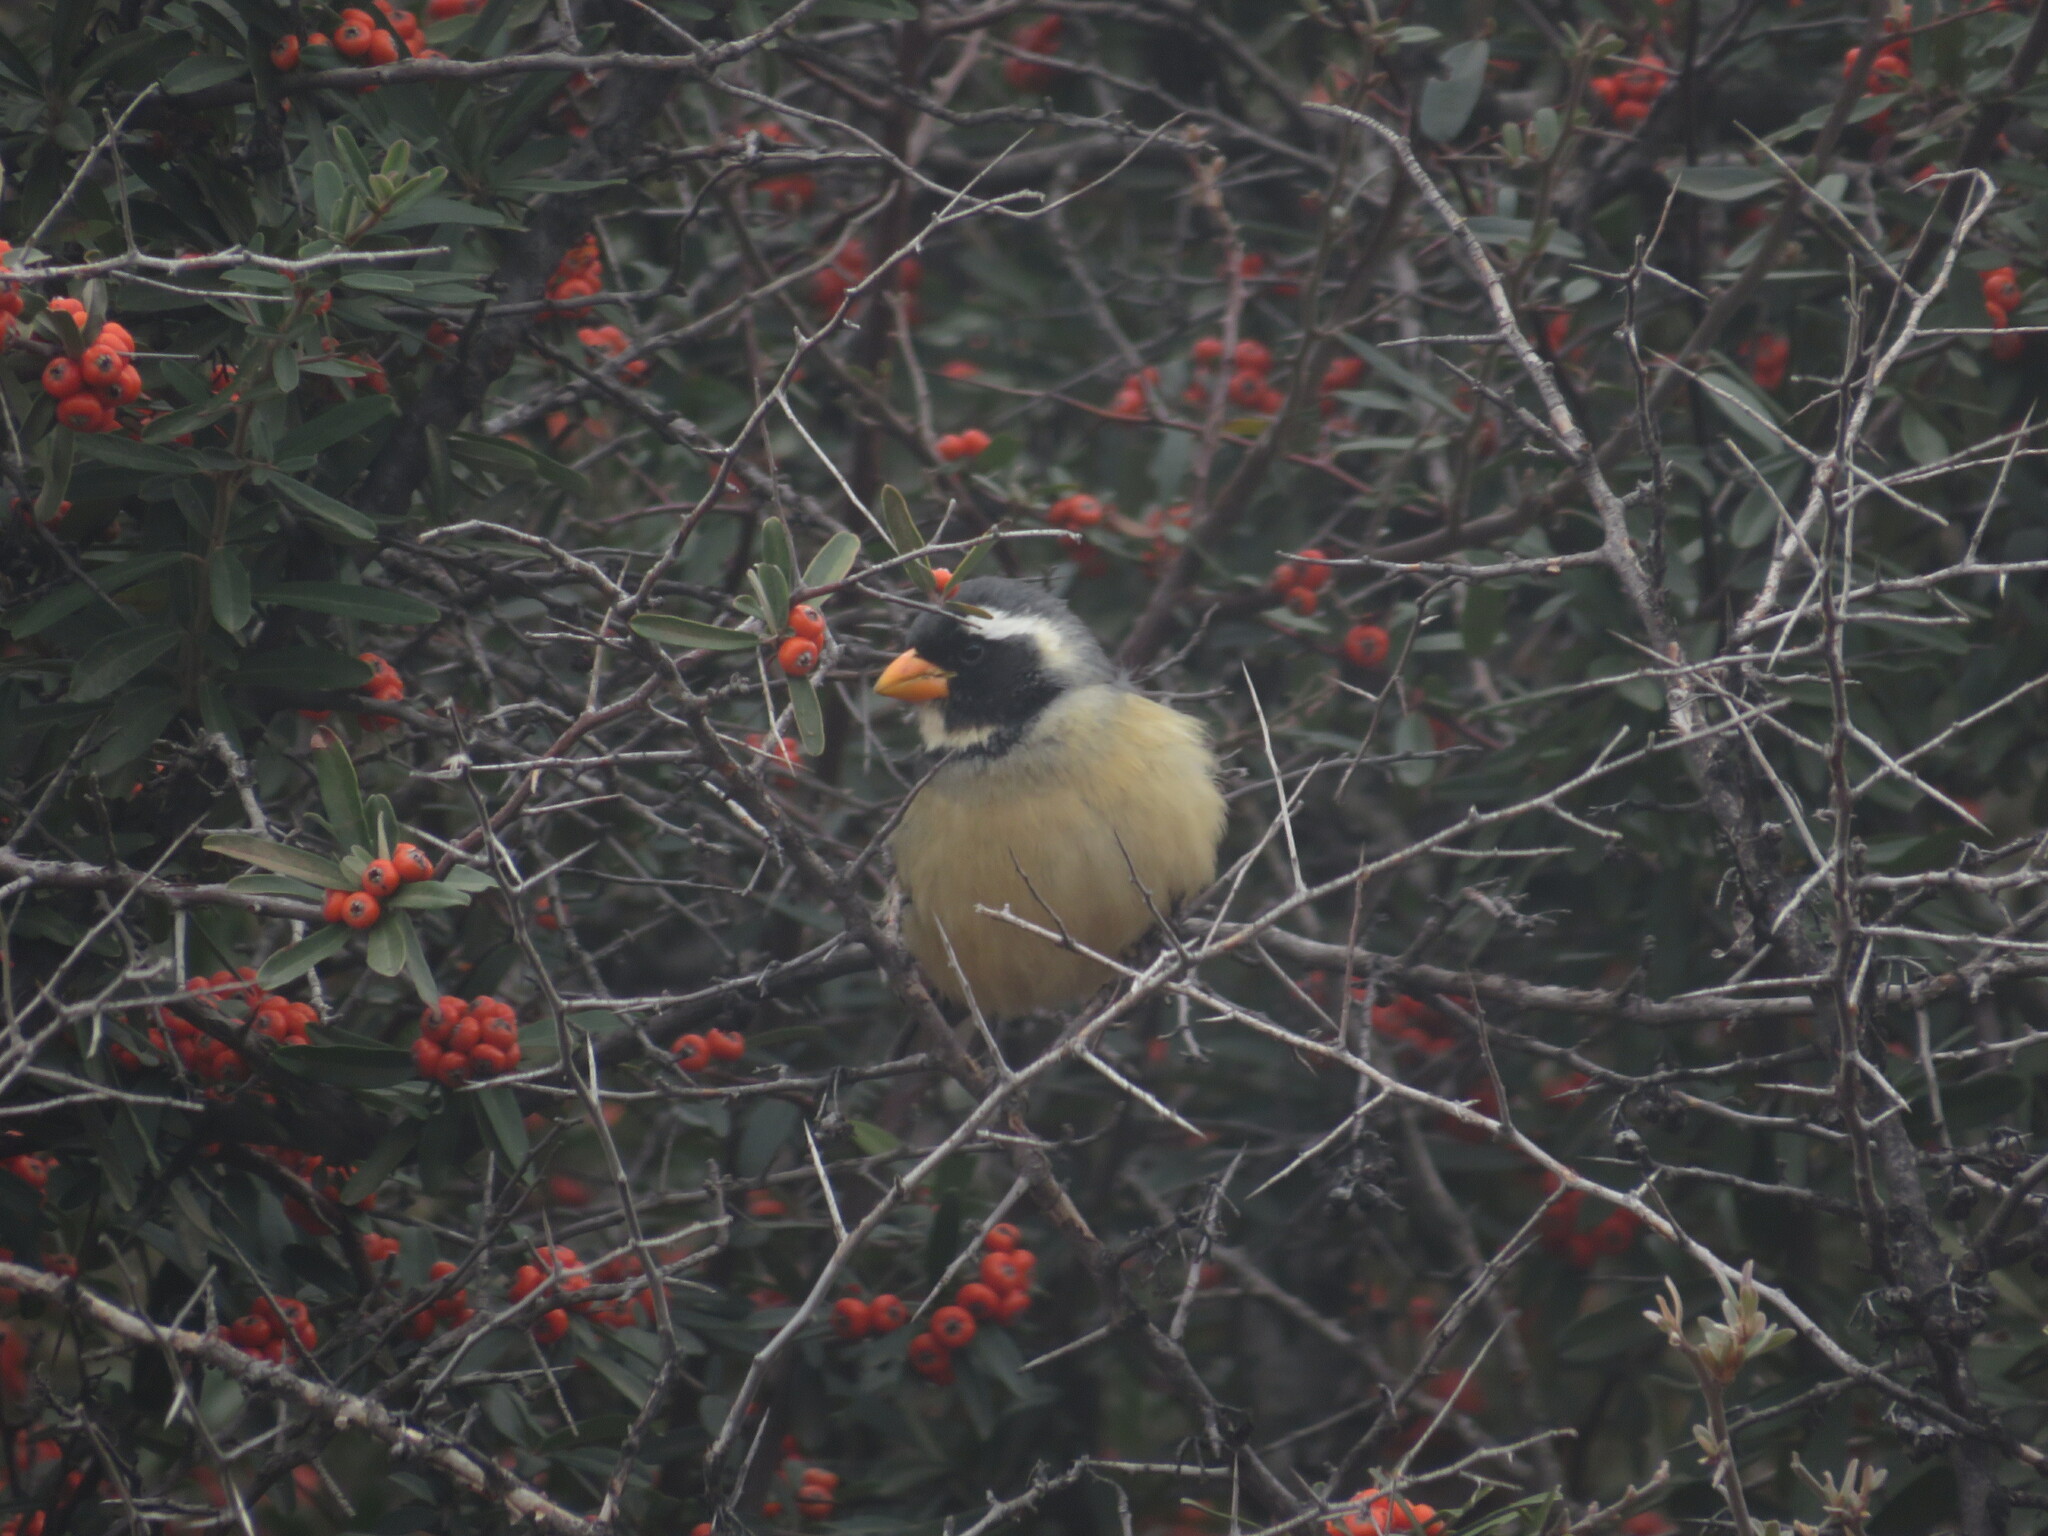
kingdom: Animalia
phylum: Chordata
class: Aves
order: Passeriformes
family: Thraupidae
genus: Saltator
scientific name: Saltator aurantiirostris
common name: Golden-billed saltator
